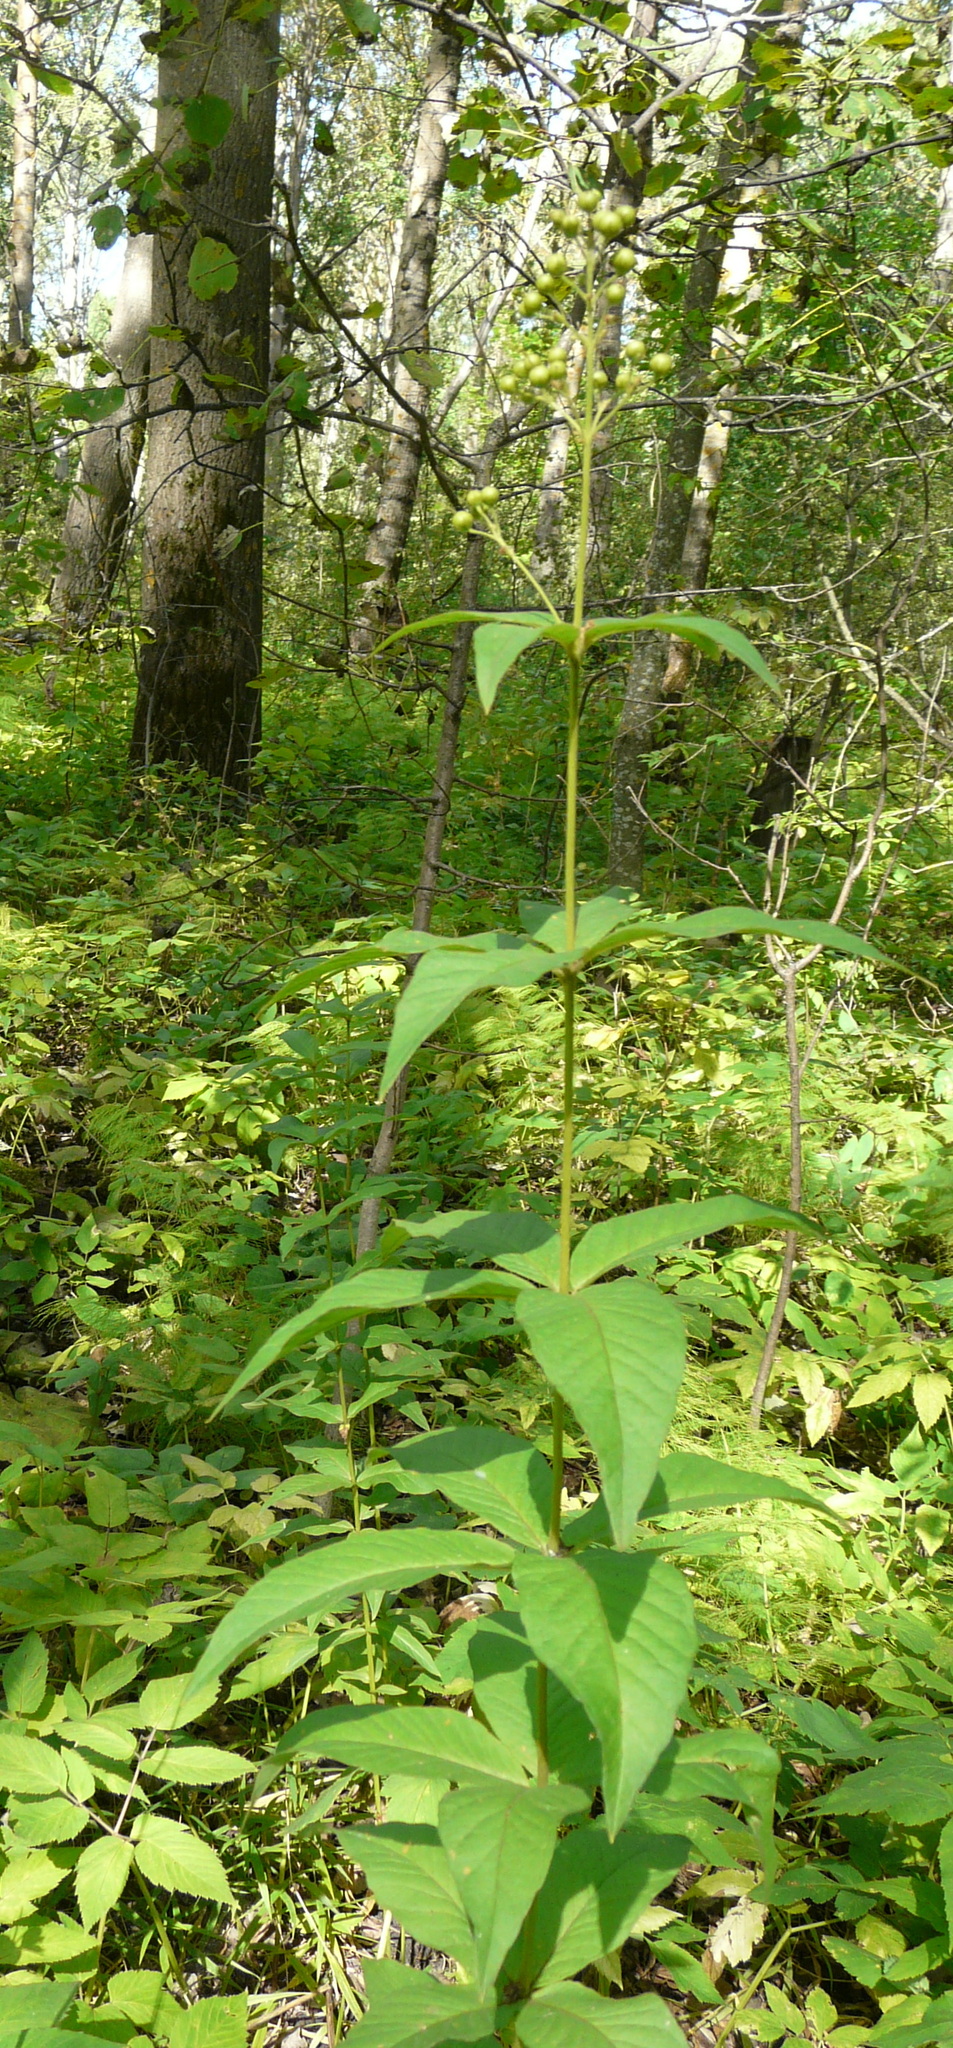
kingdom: Plantae
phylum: Tracheophyta
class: Magnoliopsida
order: Ericales
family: Primulaceae
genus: Lysimachia
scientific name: Lysimachia vulgaris
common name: Yellow loosestrife
